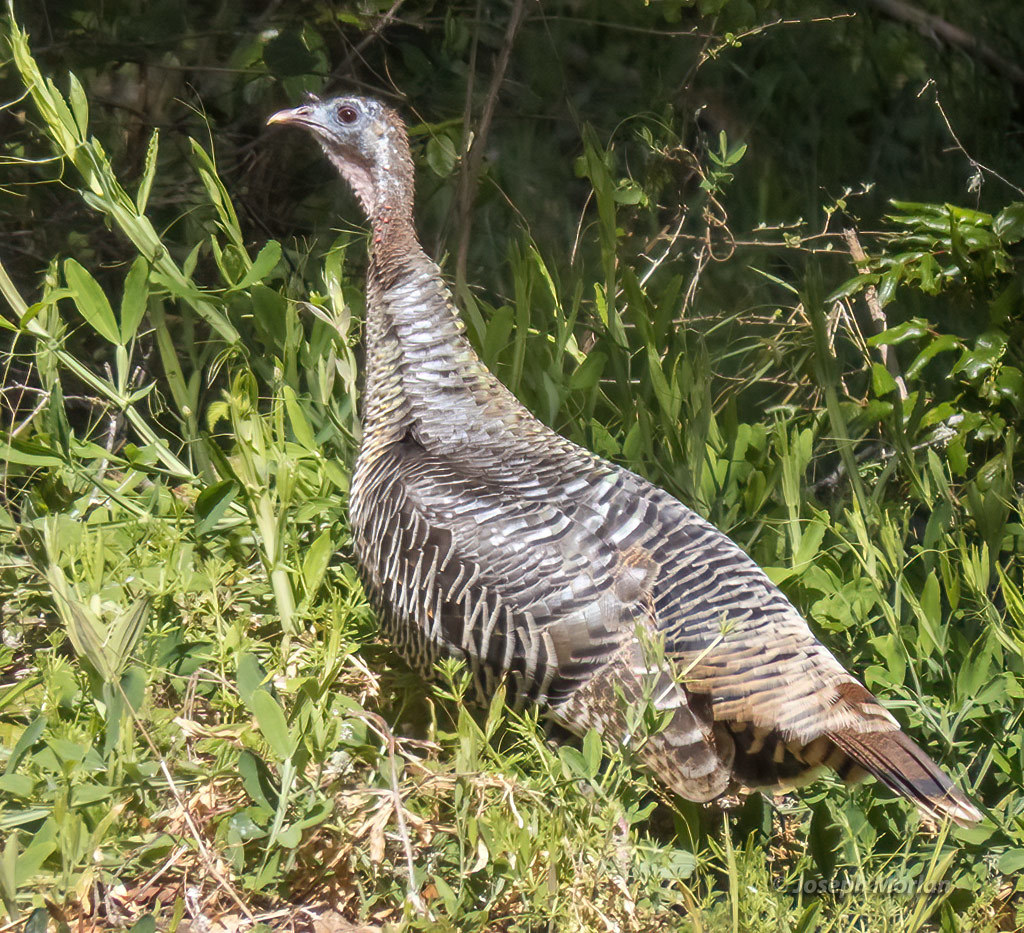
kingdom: Animalia
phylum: Chordata
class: Aves
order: Galliformes
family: Phasianidae
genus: Meleagris
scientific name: Meleagris gallopavo
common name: Wild turkey
